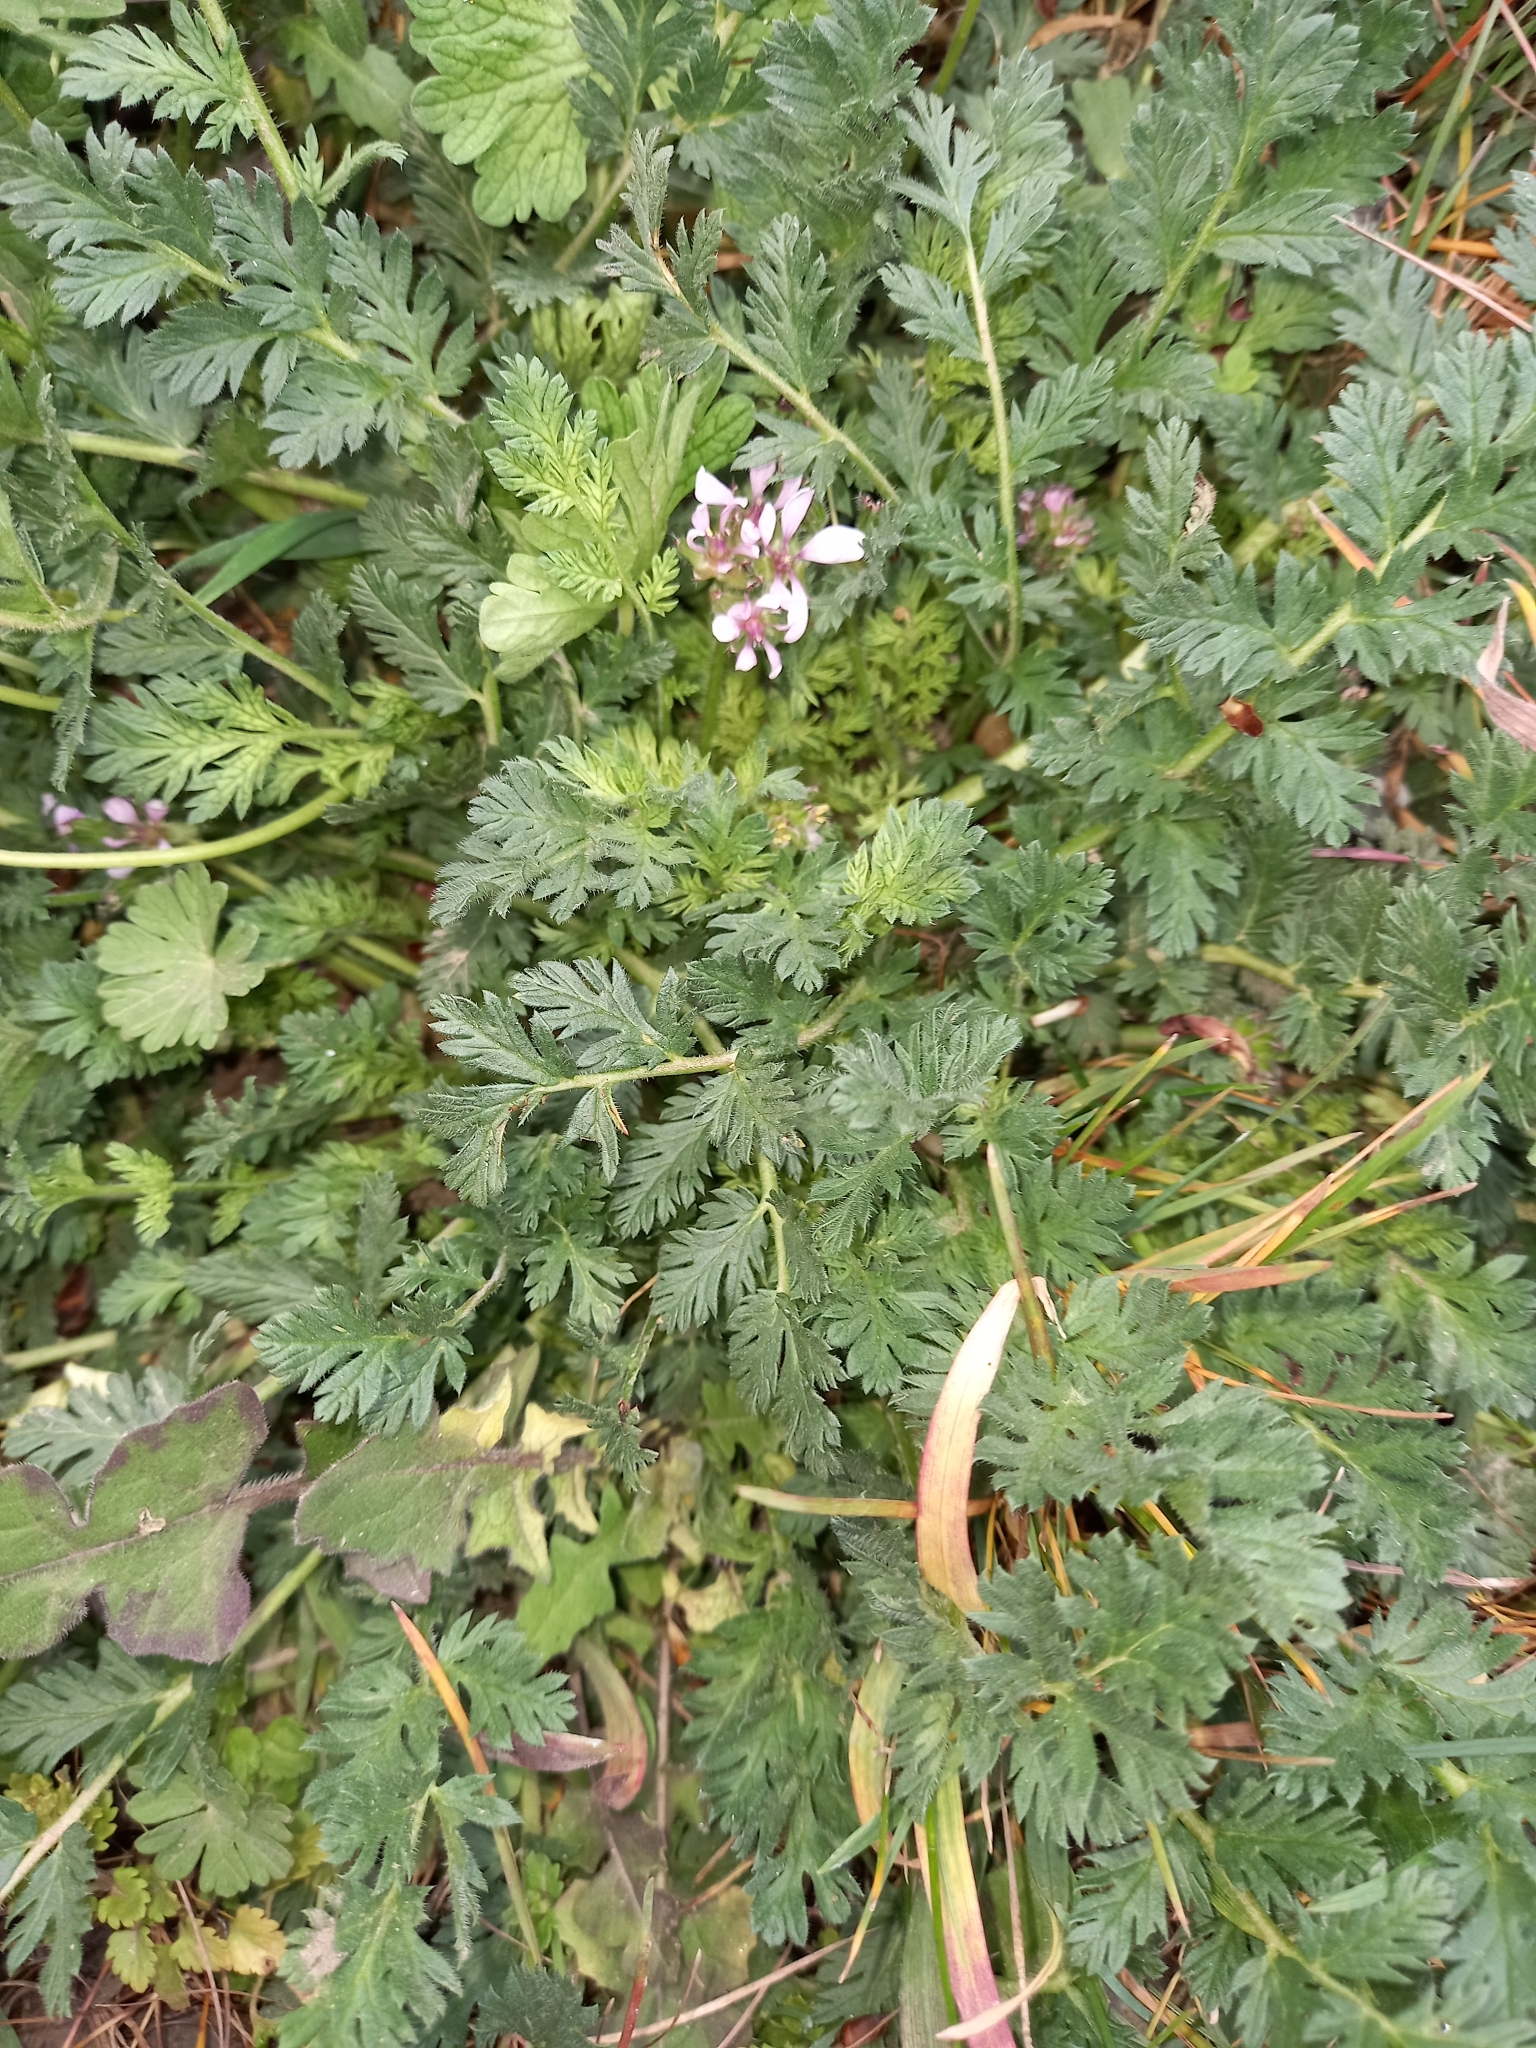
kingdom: Plantae
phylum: Tracheophyta
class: Magnoliopsida
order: Geraniales
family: Geraniaceae
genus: Erodium
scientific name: Erodium cicutarium
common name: Common stork's-bill
